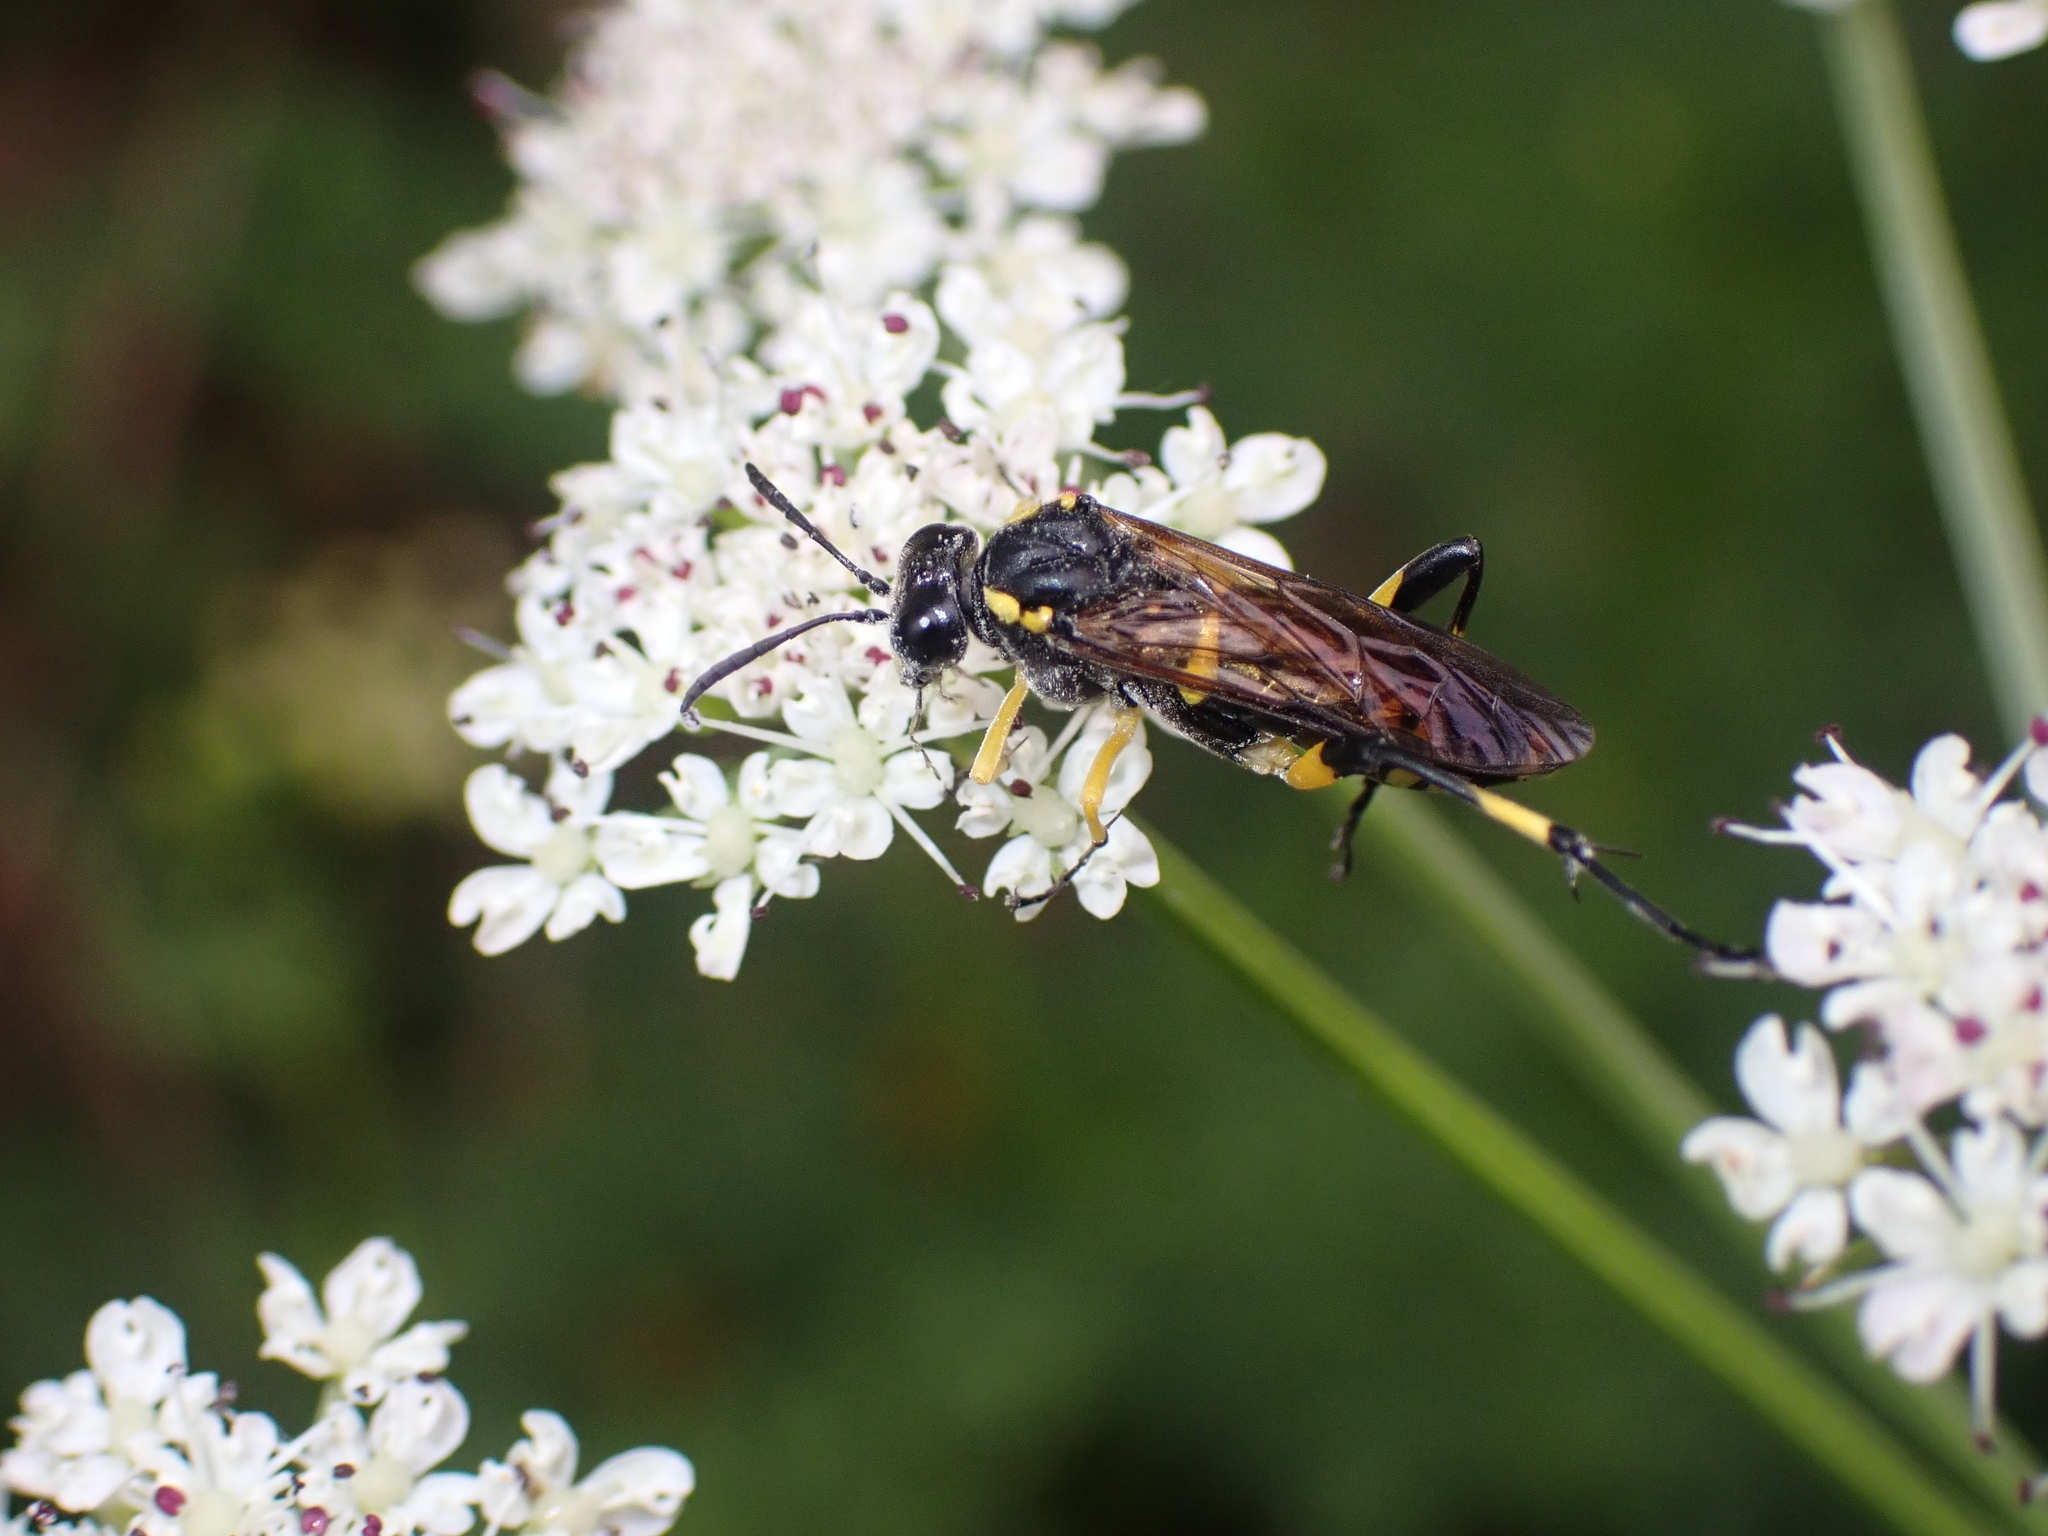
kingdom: Animalia
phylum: Arthropoda
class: Insecta
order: Hymenoptera
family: Tenthredinidae
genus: Macrophya
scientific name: Macrophya montana
